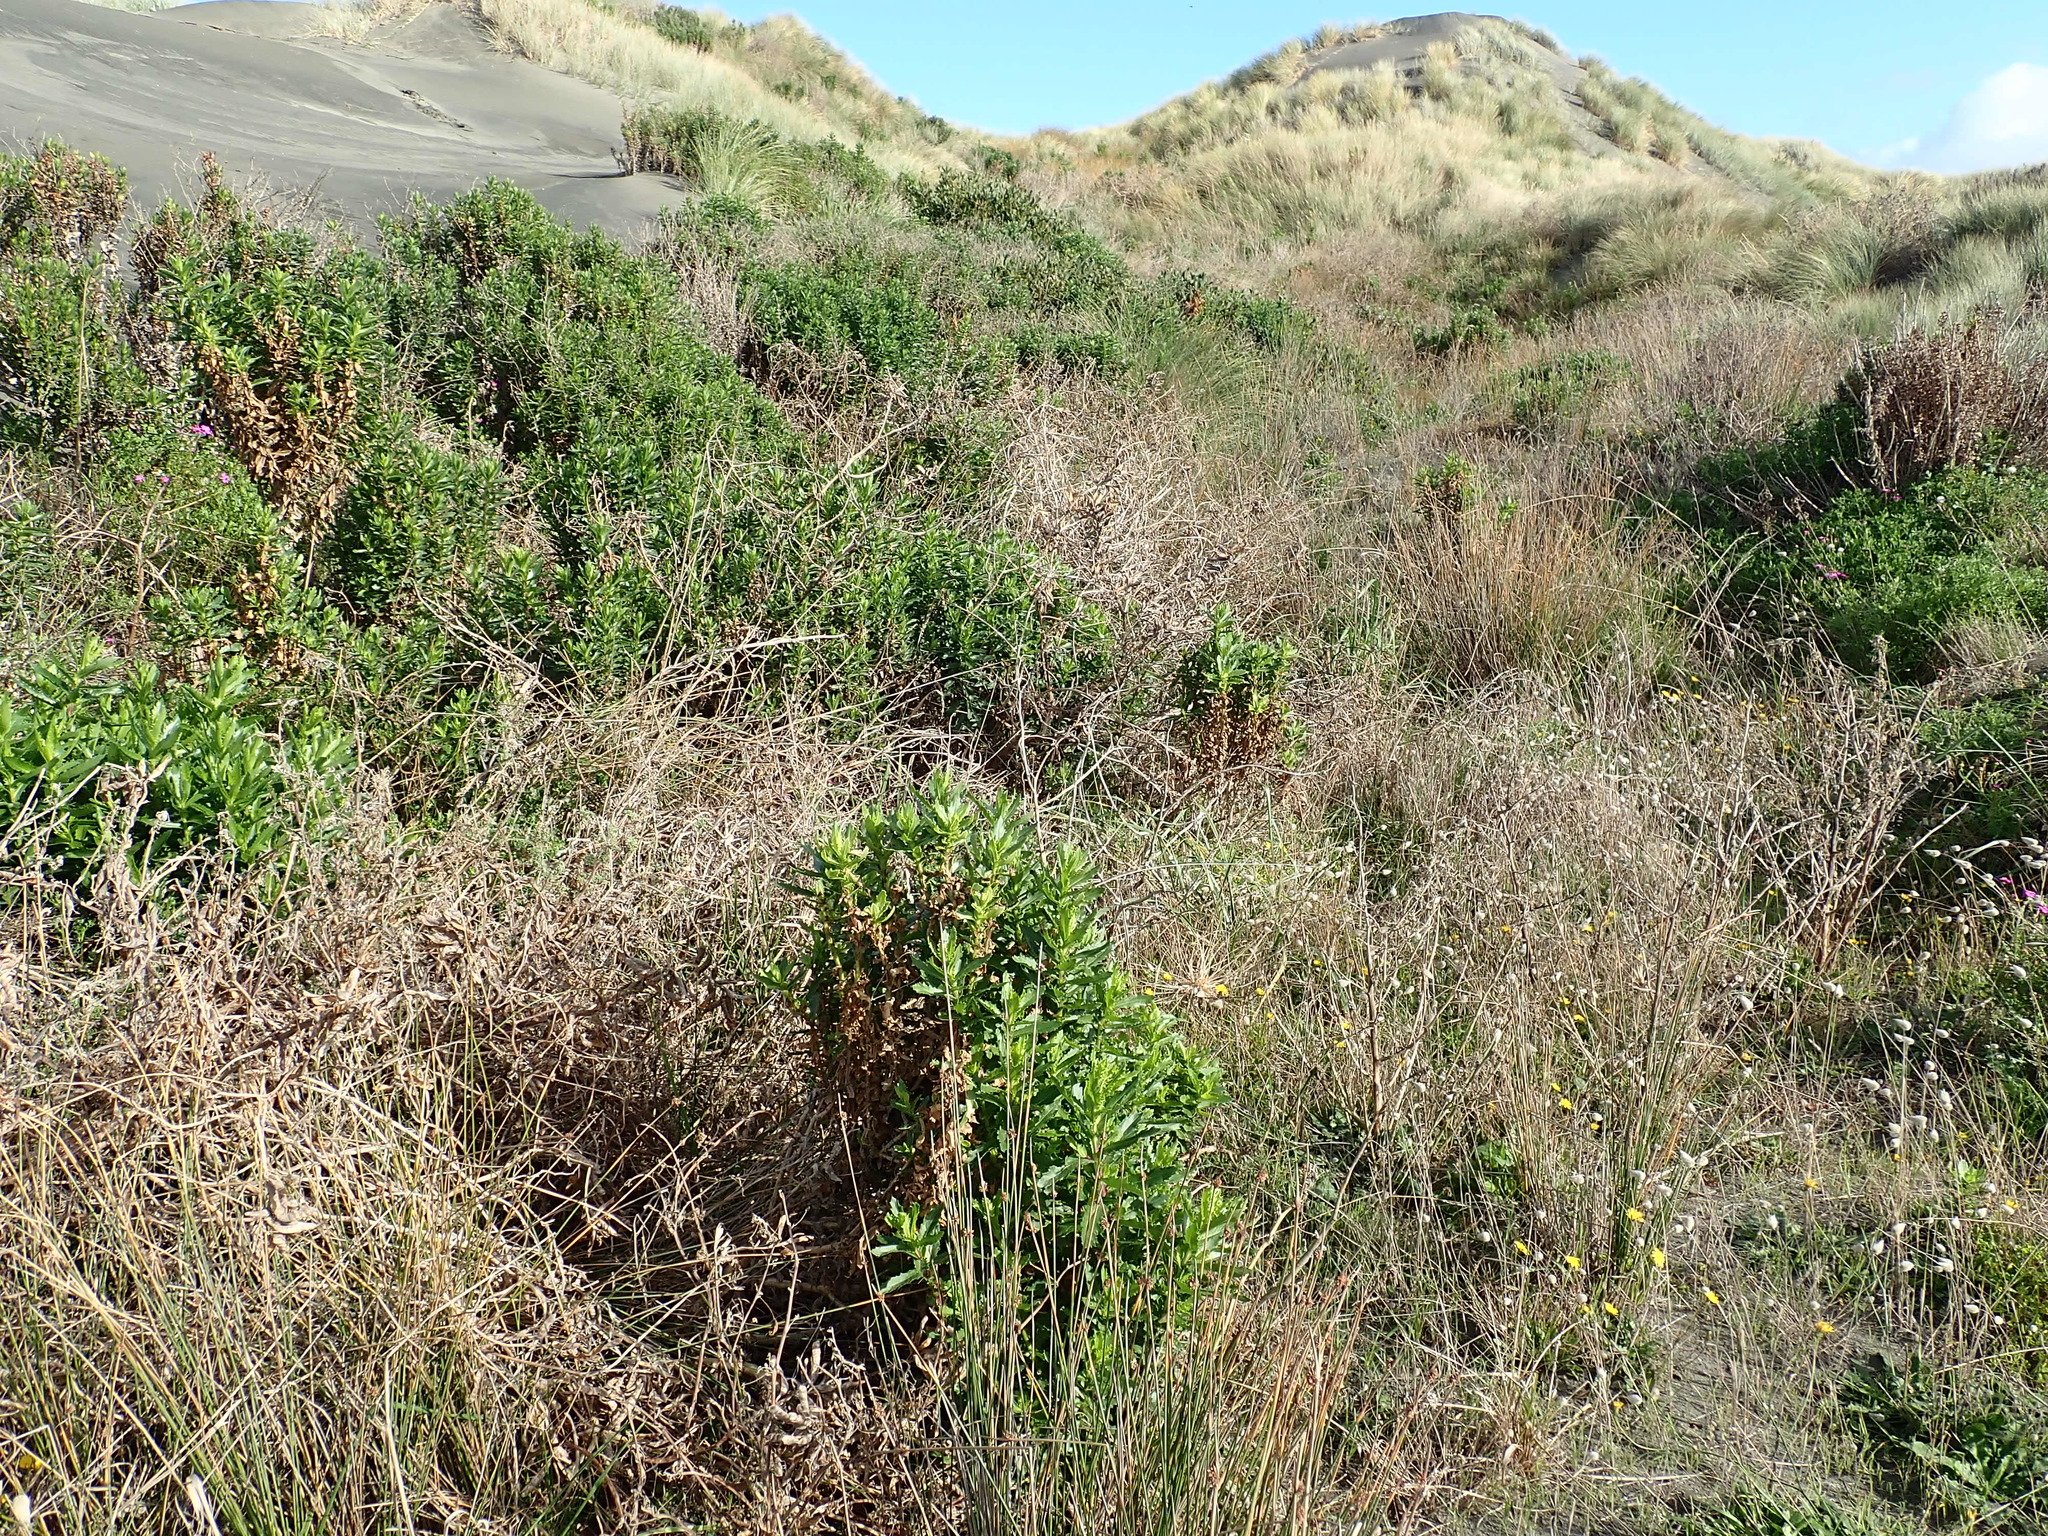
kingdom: Plantae
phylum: Tracheophyta
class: Magnoliopsida
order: Asterales
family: Asteraceae
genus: Senecio
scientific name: Senecio glastifolius
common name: Woad-leaved ragwort
